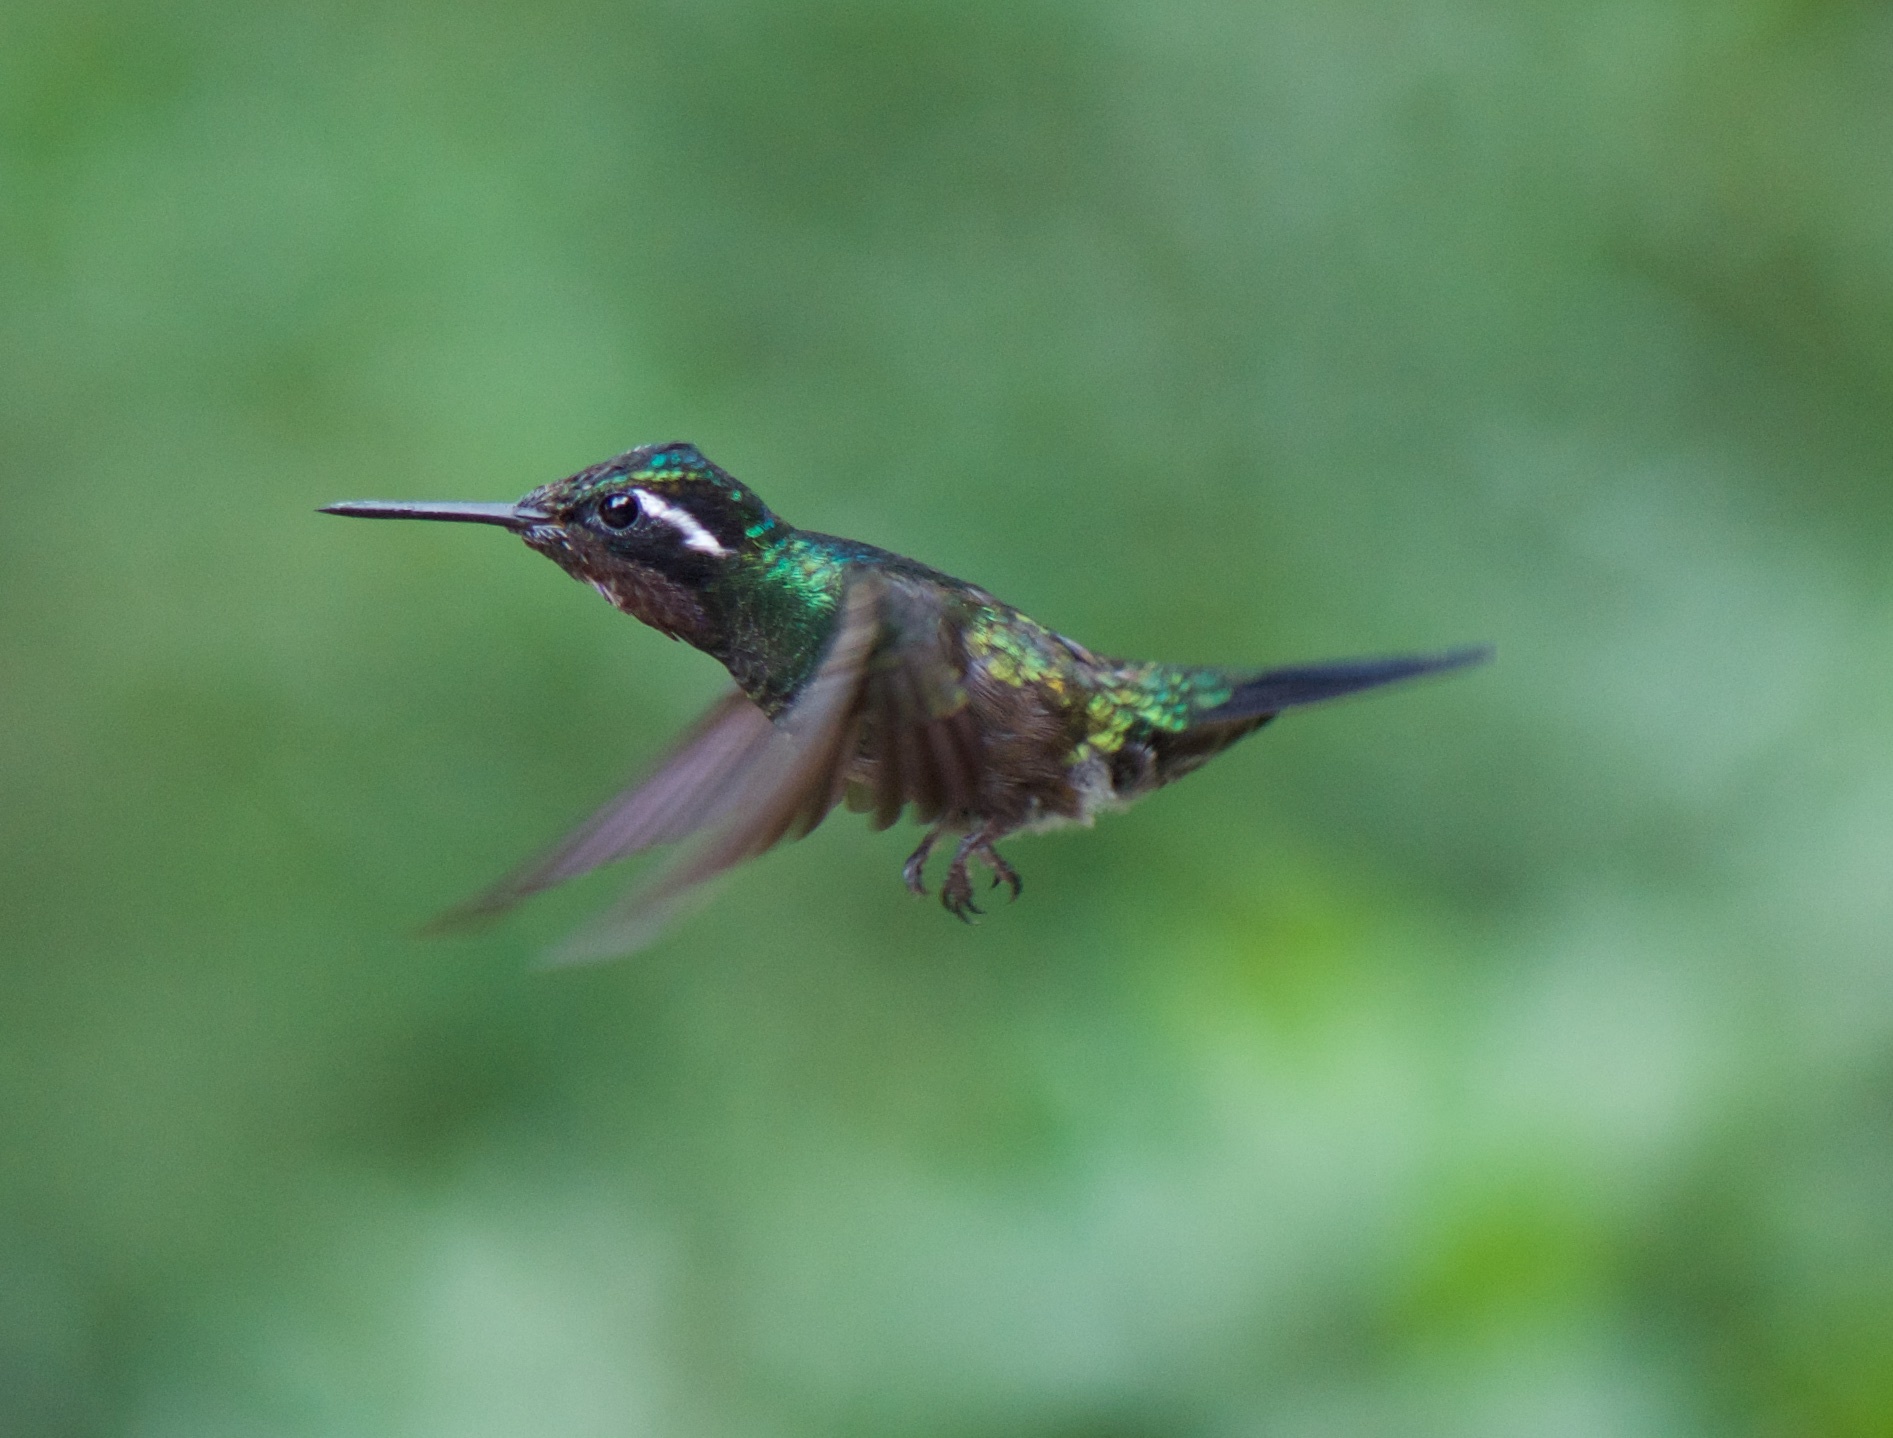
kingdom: Animalia
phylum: Chordata
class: Aves
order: Apodiformes
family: Trochilidae
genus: Lampornis
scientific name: Lampornis calolaemus
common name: Purple-throated mountain-gem
